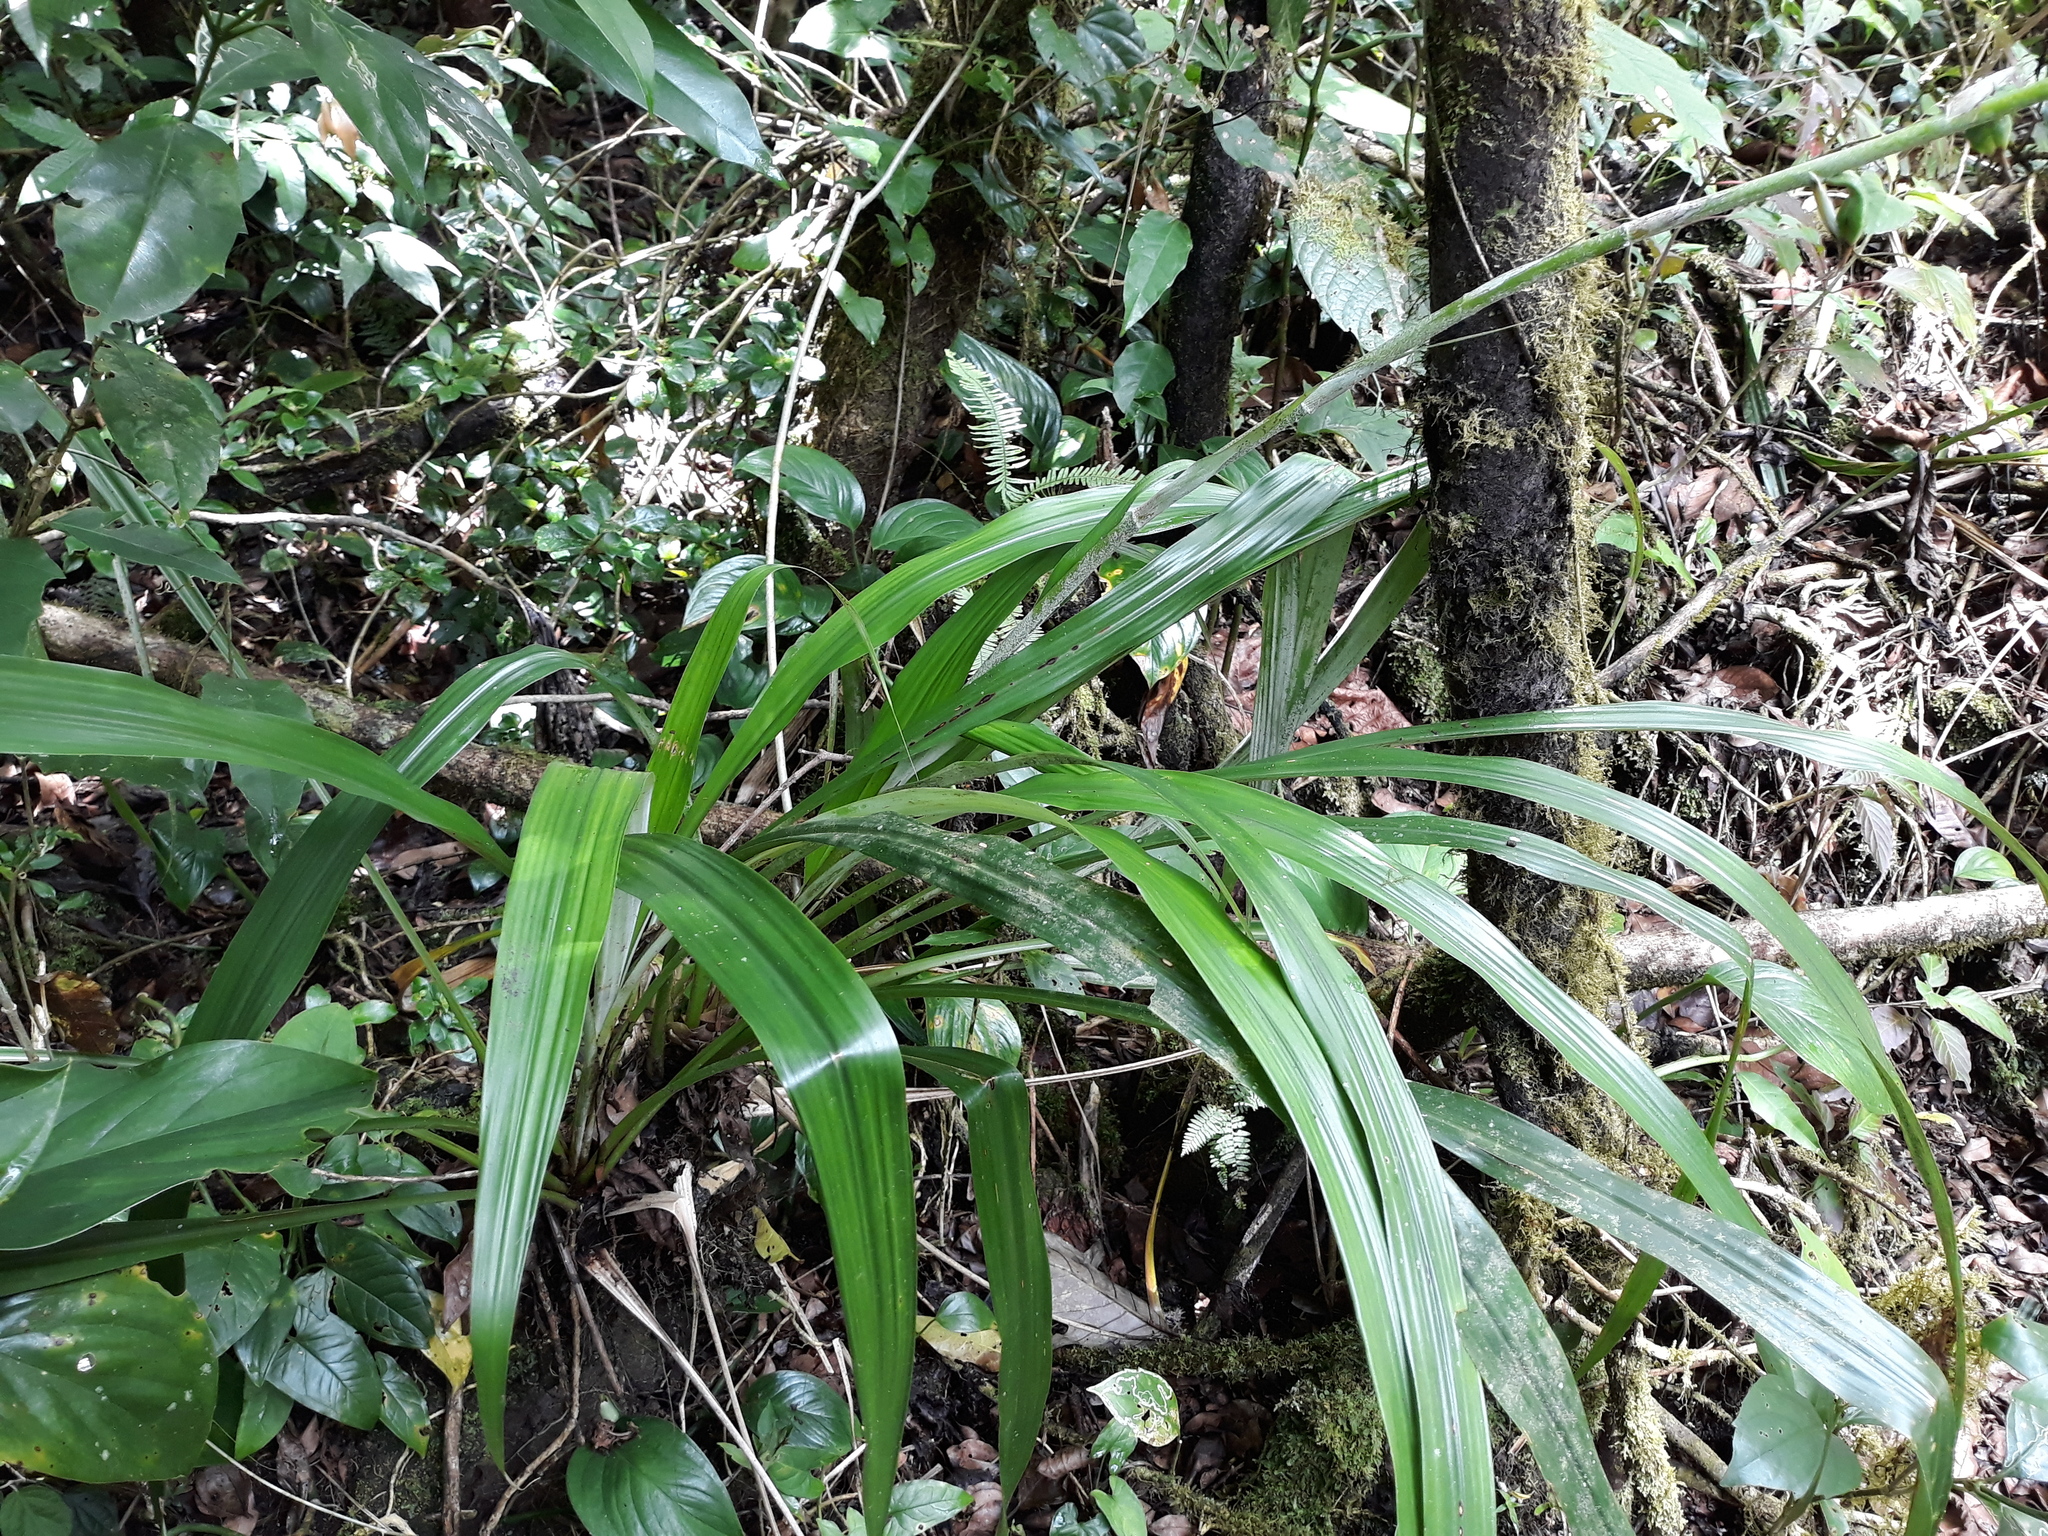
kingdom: Plantae
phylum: Tracheophyta
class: Liliopsida
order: Poales
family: Bromeliaceae
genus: Pitcairnia
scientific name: Pitcairnia recurvata
